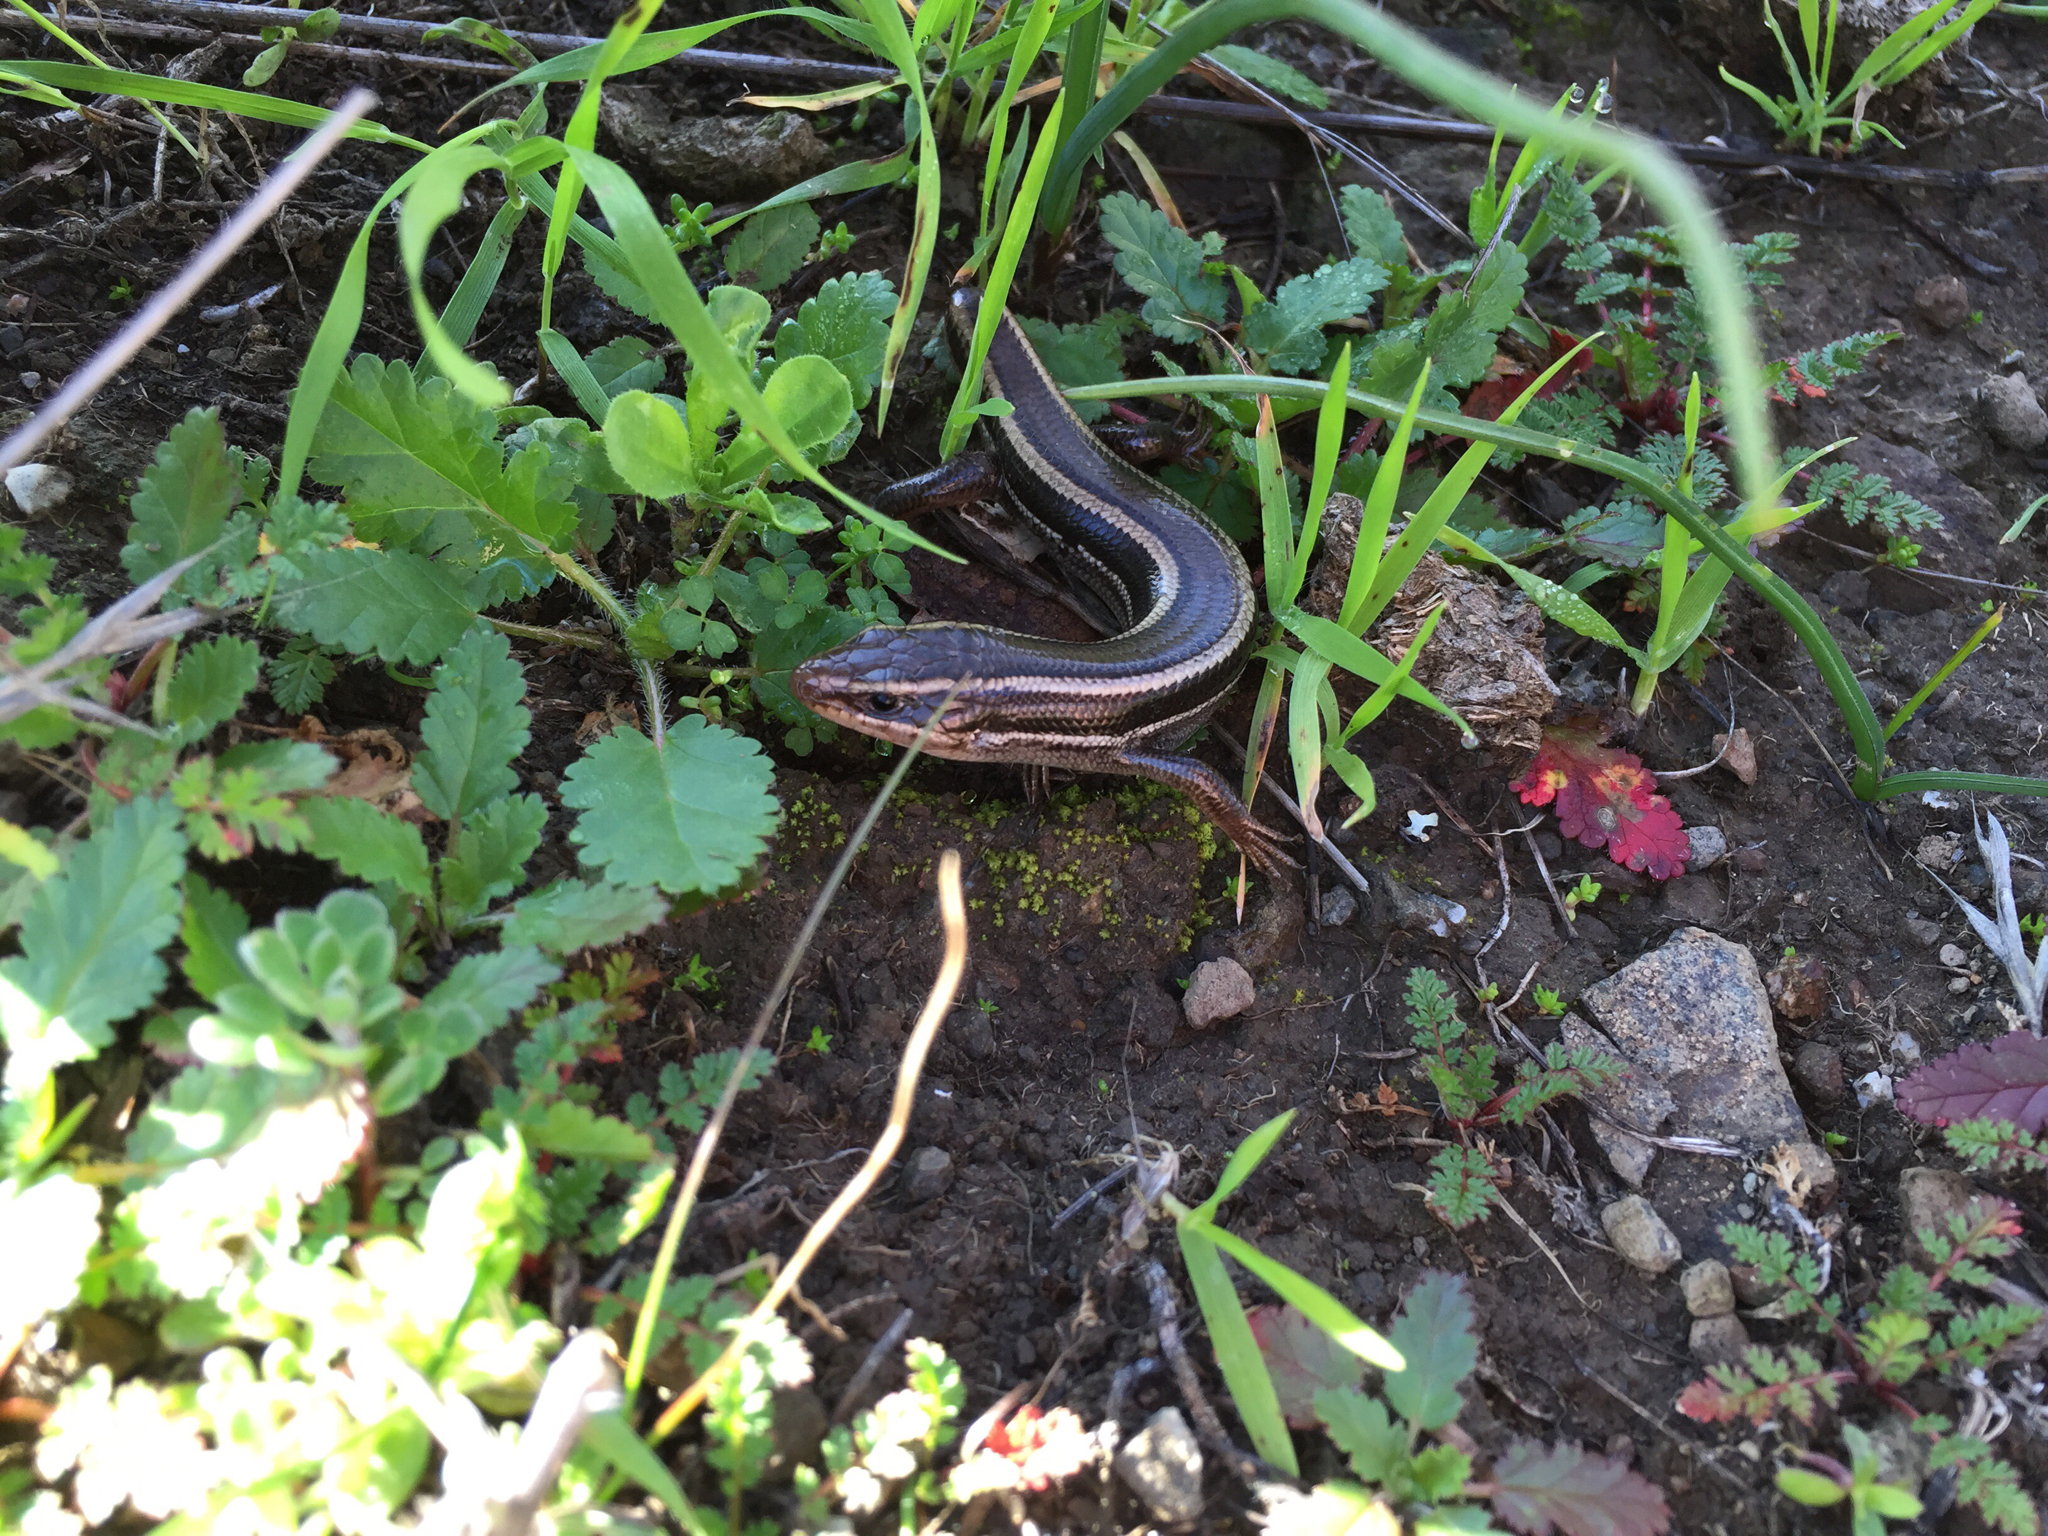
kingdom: Animalia
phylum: Chordata
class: Squamata
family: Scincidae
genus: Plestiodon
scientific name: Plestiodon skiltonianus
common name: Coronado island skink [interparietalis]
